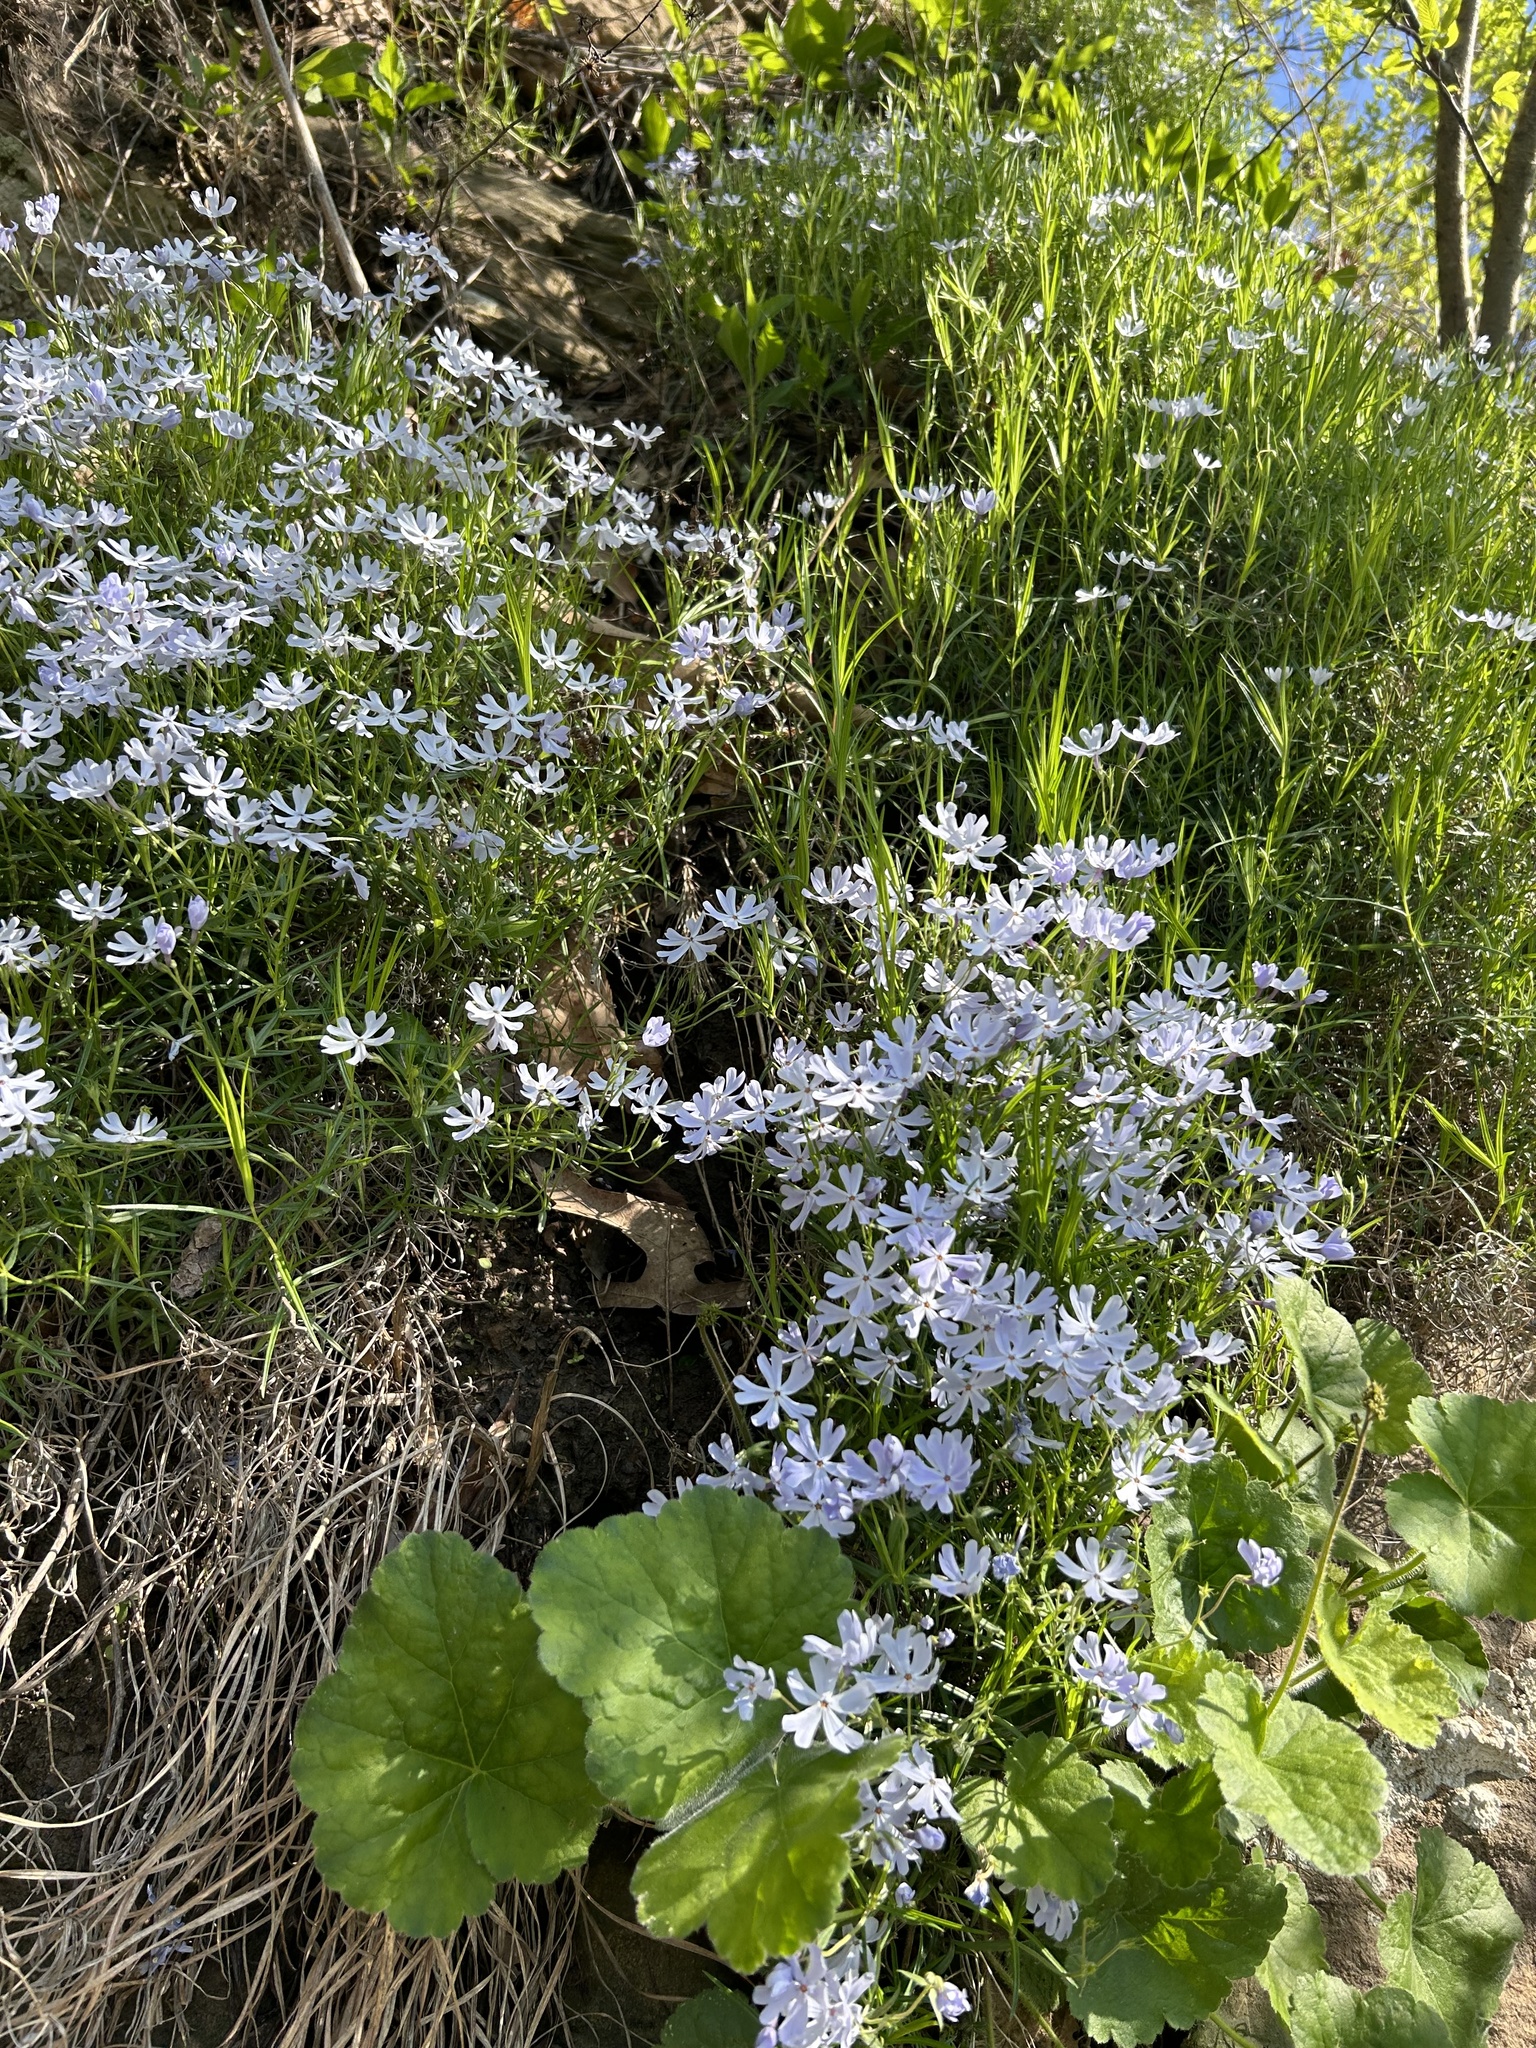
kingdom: Plantae
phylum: Tracheophyta
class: Magnoliopsida
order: Ericales
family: Polemoniaceae
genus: Phlox
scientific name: Phlox bifida
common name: Sand phlox
